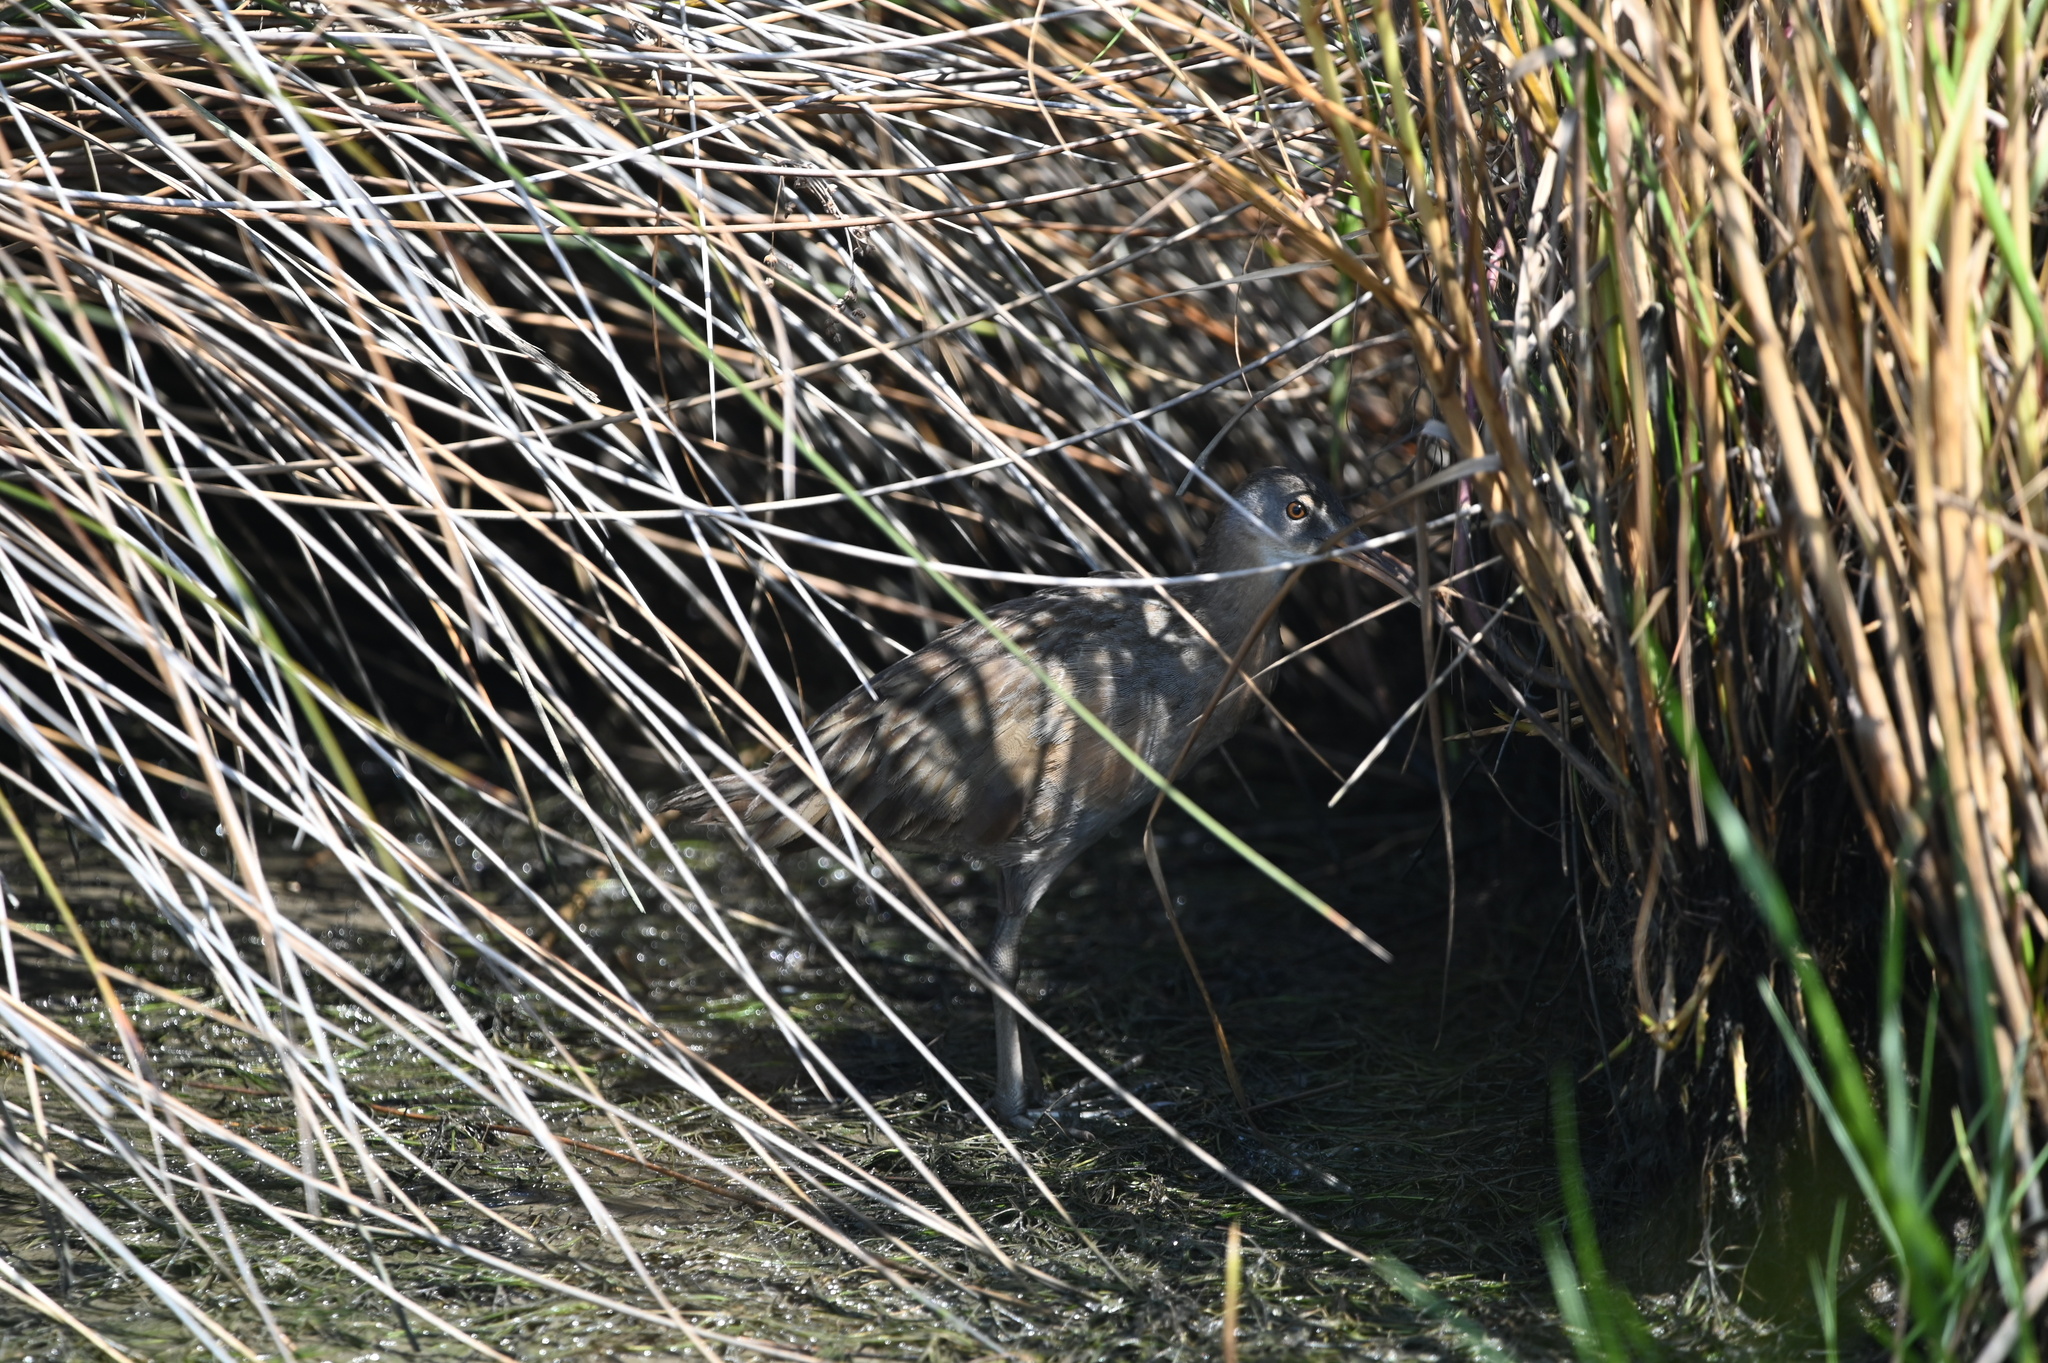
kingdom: Animalia
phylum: Chordata
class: Aves
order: Gruiformes
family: Rallidae
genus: Rallus
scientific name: Rallus crepitans
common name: Clapper rail
